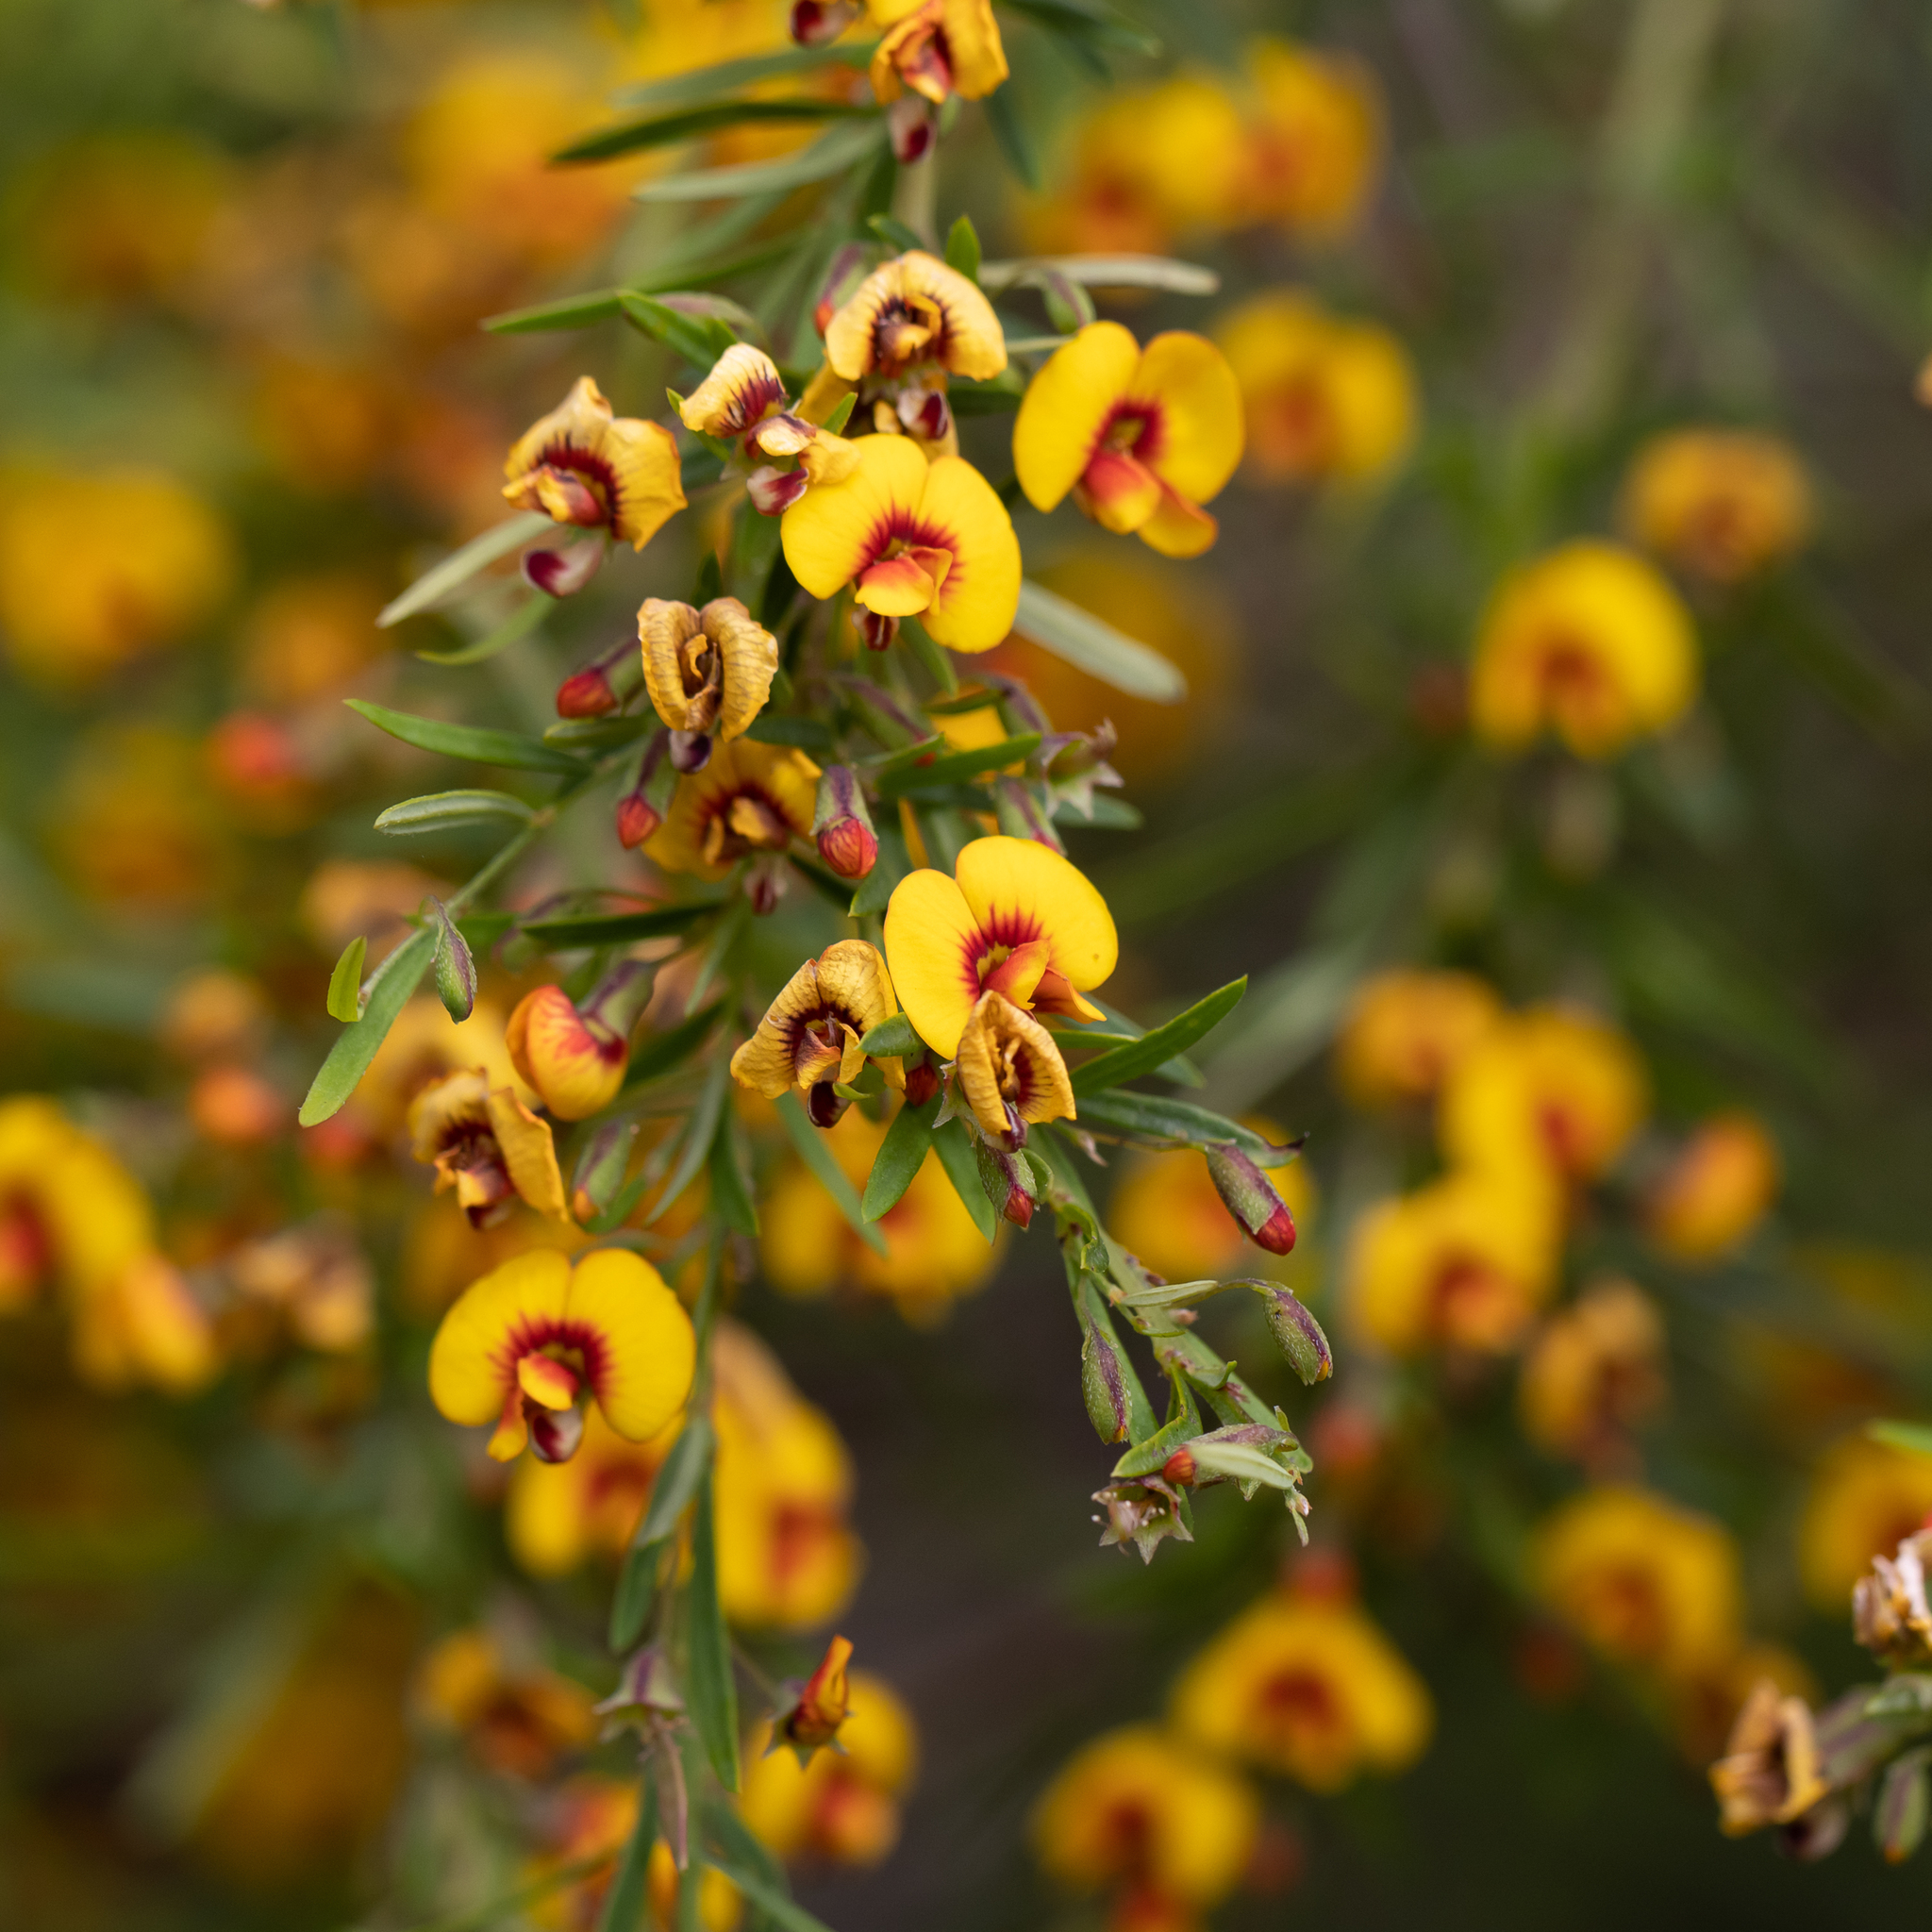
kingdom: Plantae
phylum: Tracheophyta
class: Magnoliopsida
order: Fabales
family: Fabaceae
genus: Bossiaea
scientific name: Bossiaea linophylla
